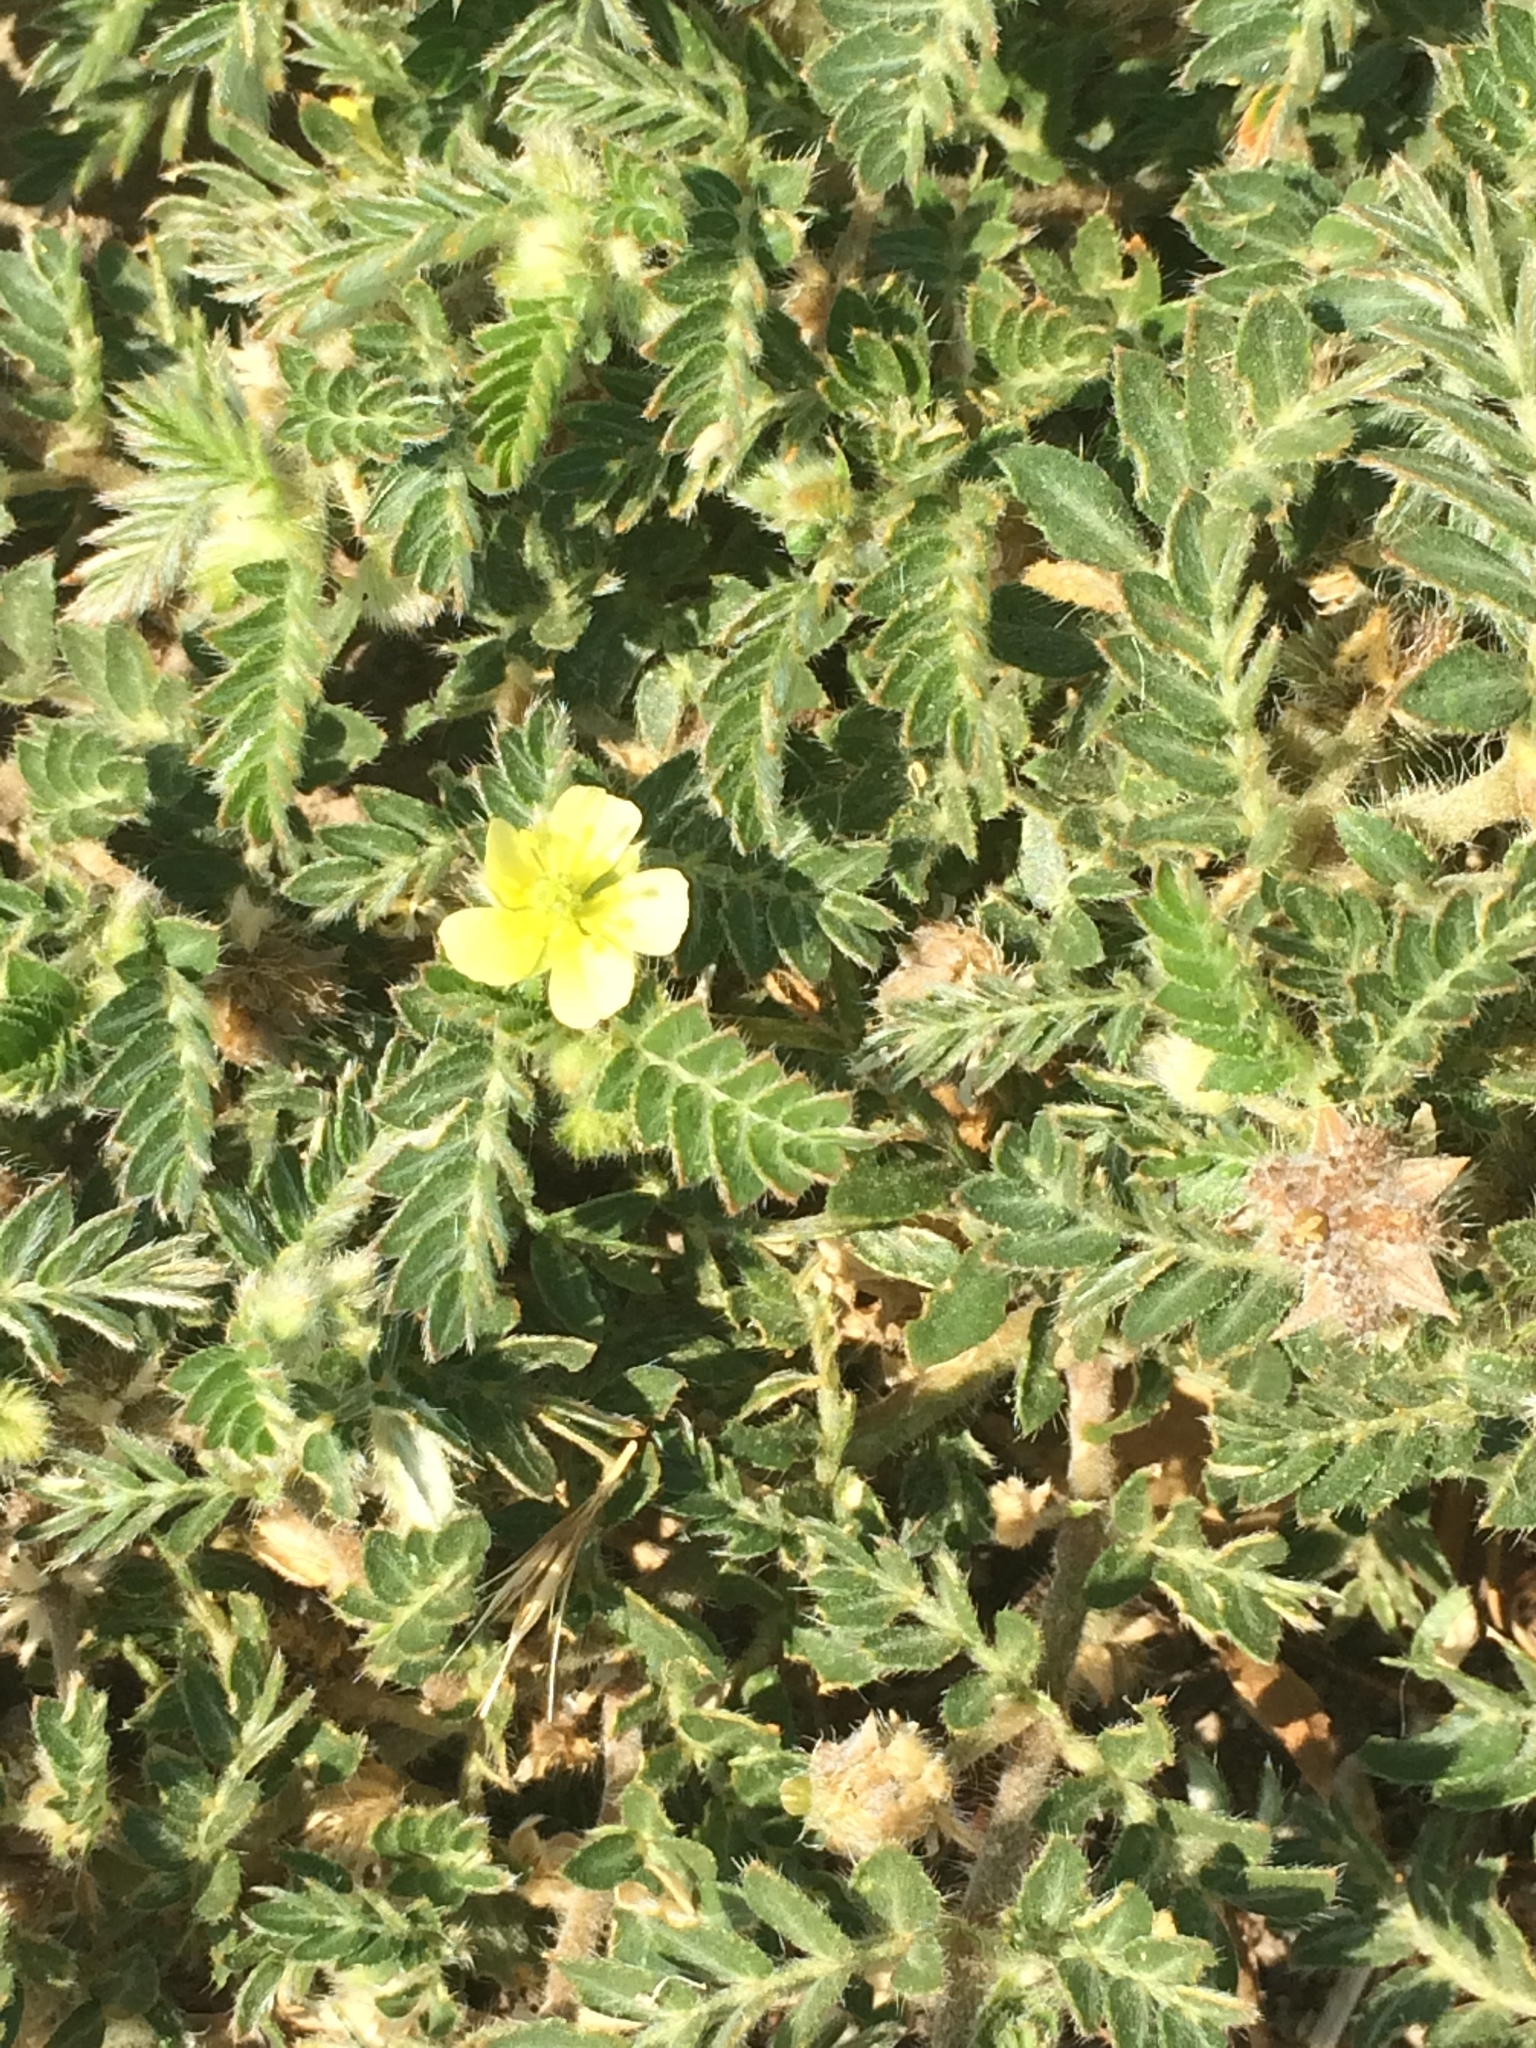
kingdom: Plantae
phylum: Tracheophyta
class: Magnoliopsida
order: Zygophyllales
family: Zygophyllaceae
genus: Tribulus
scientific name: Tribulus terrestris
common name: Puncturevine
